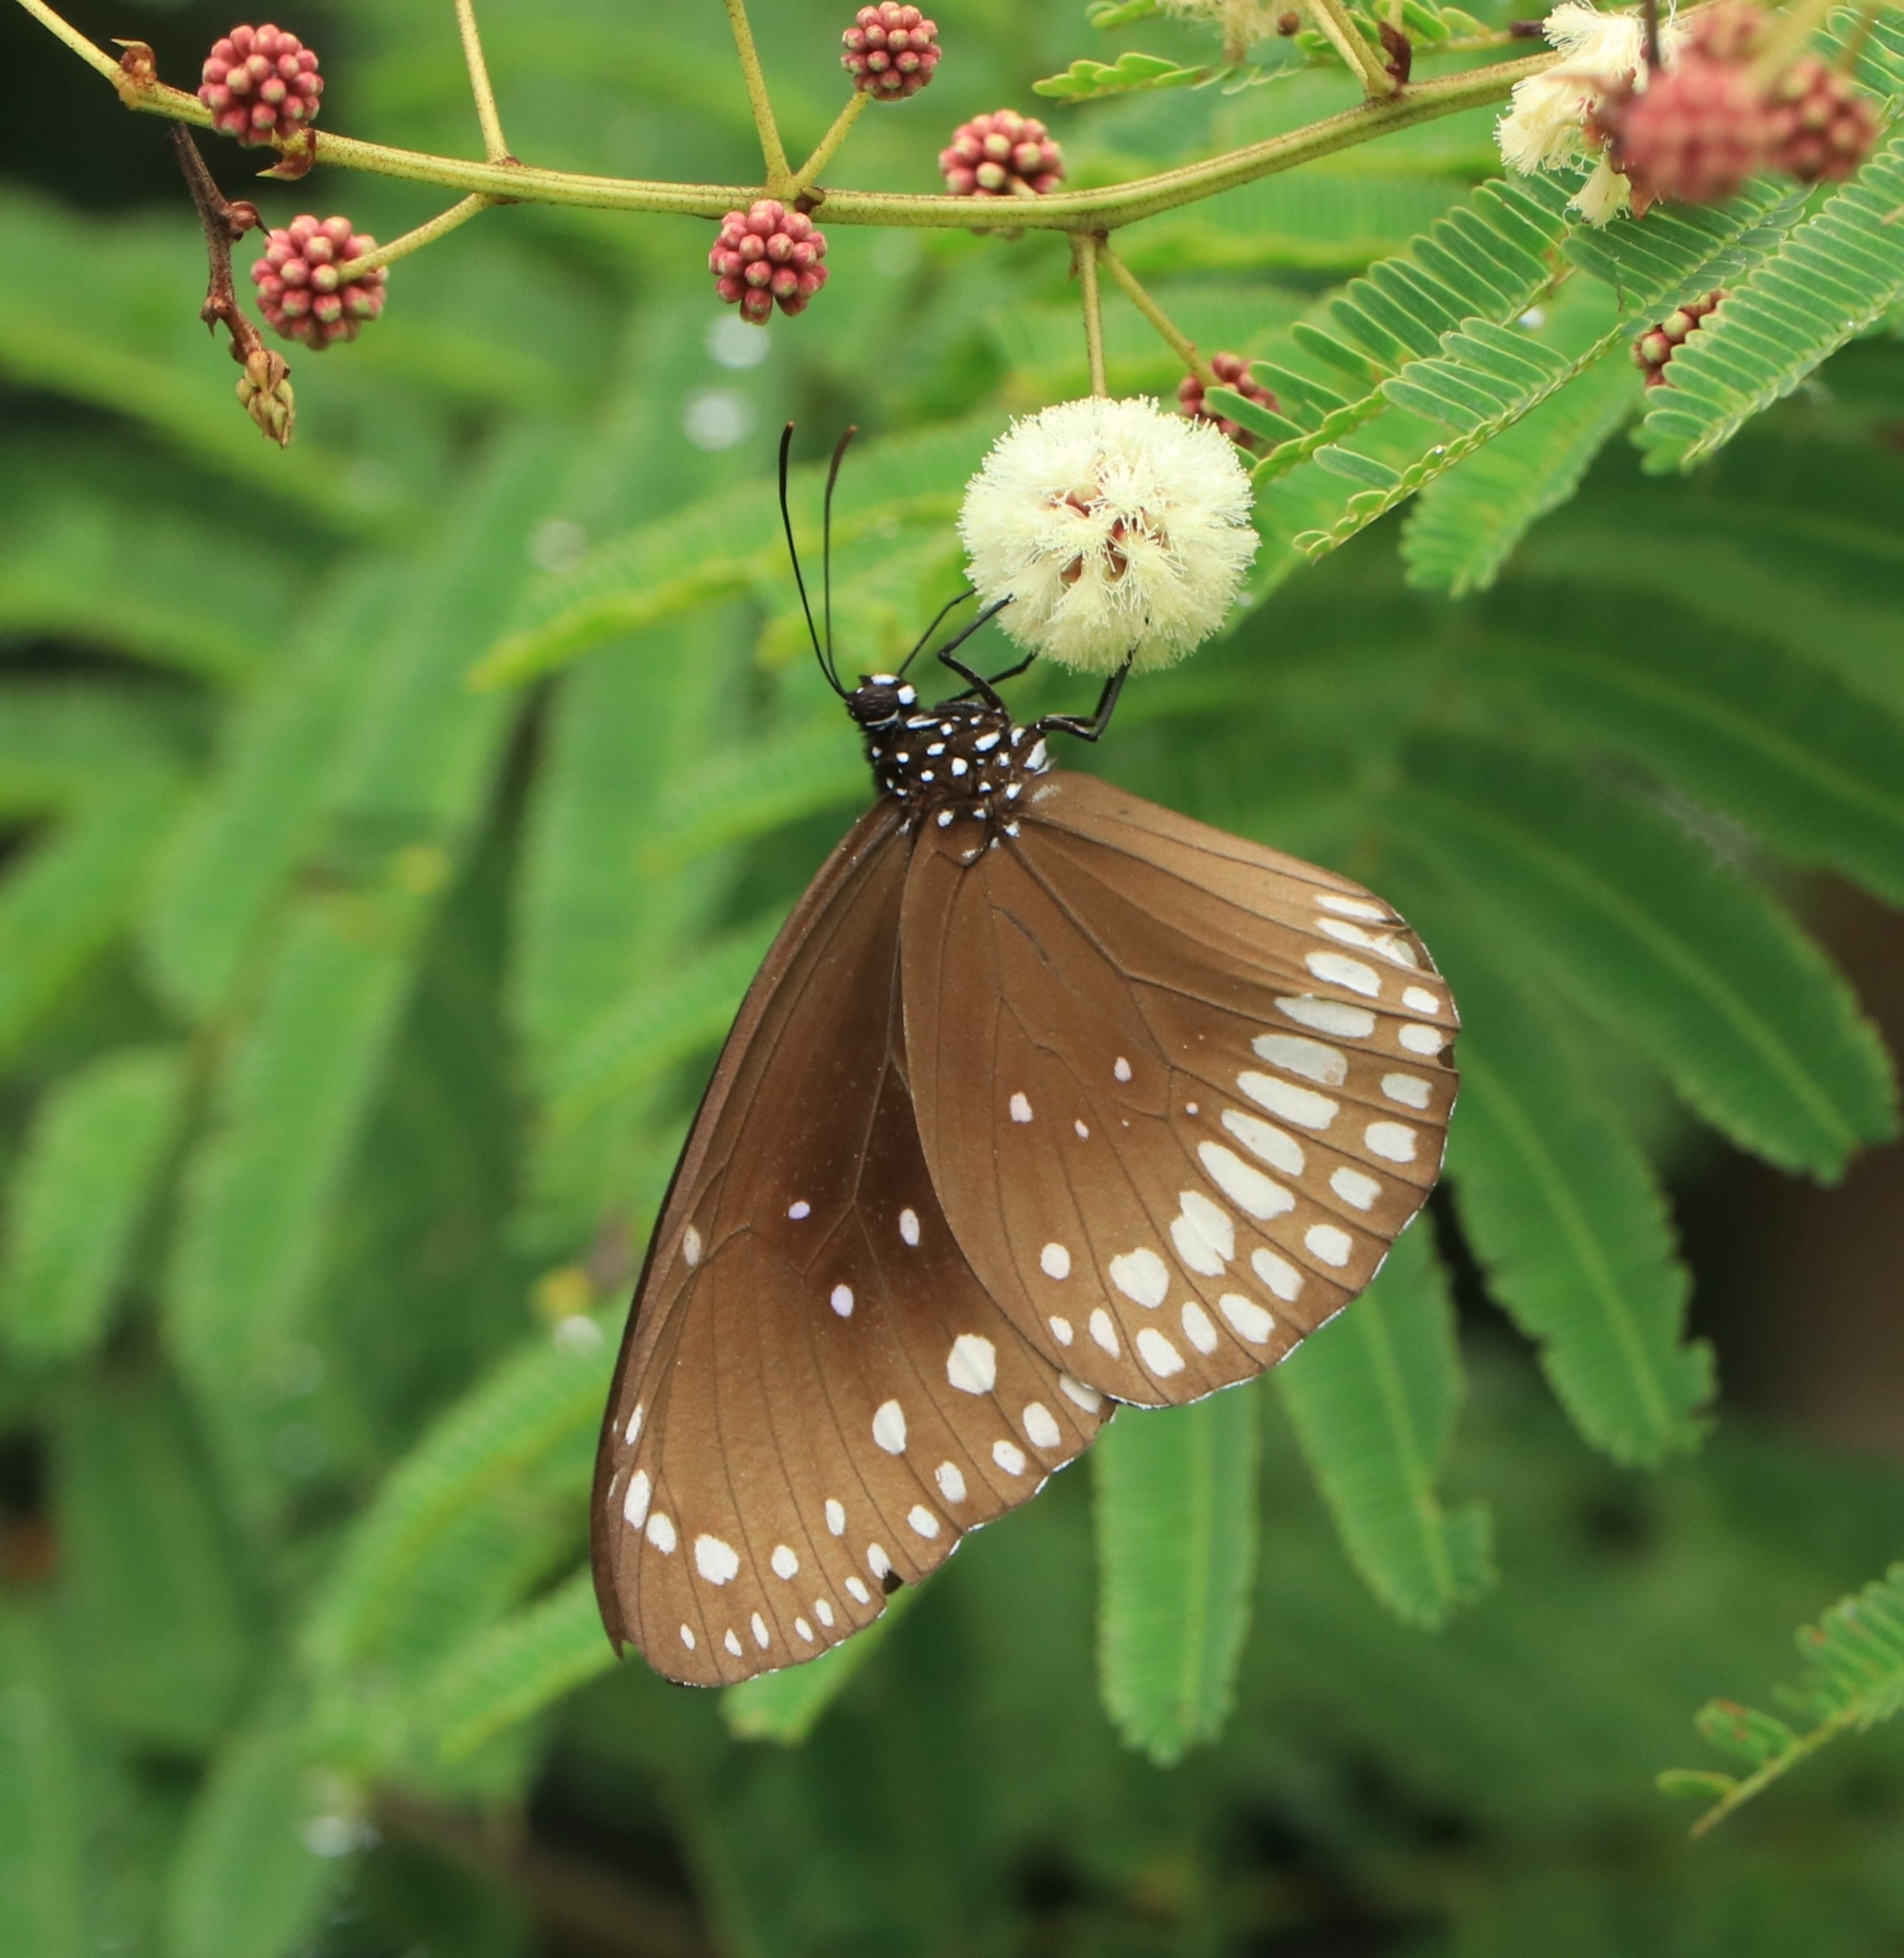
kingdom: Animalia
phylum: Arthropoda
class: Insecta
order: Lepidoptera
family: Nymphalidae
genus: Euploea
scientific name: Euploea core
